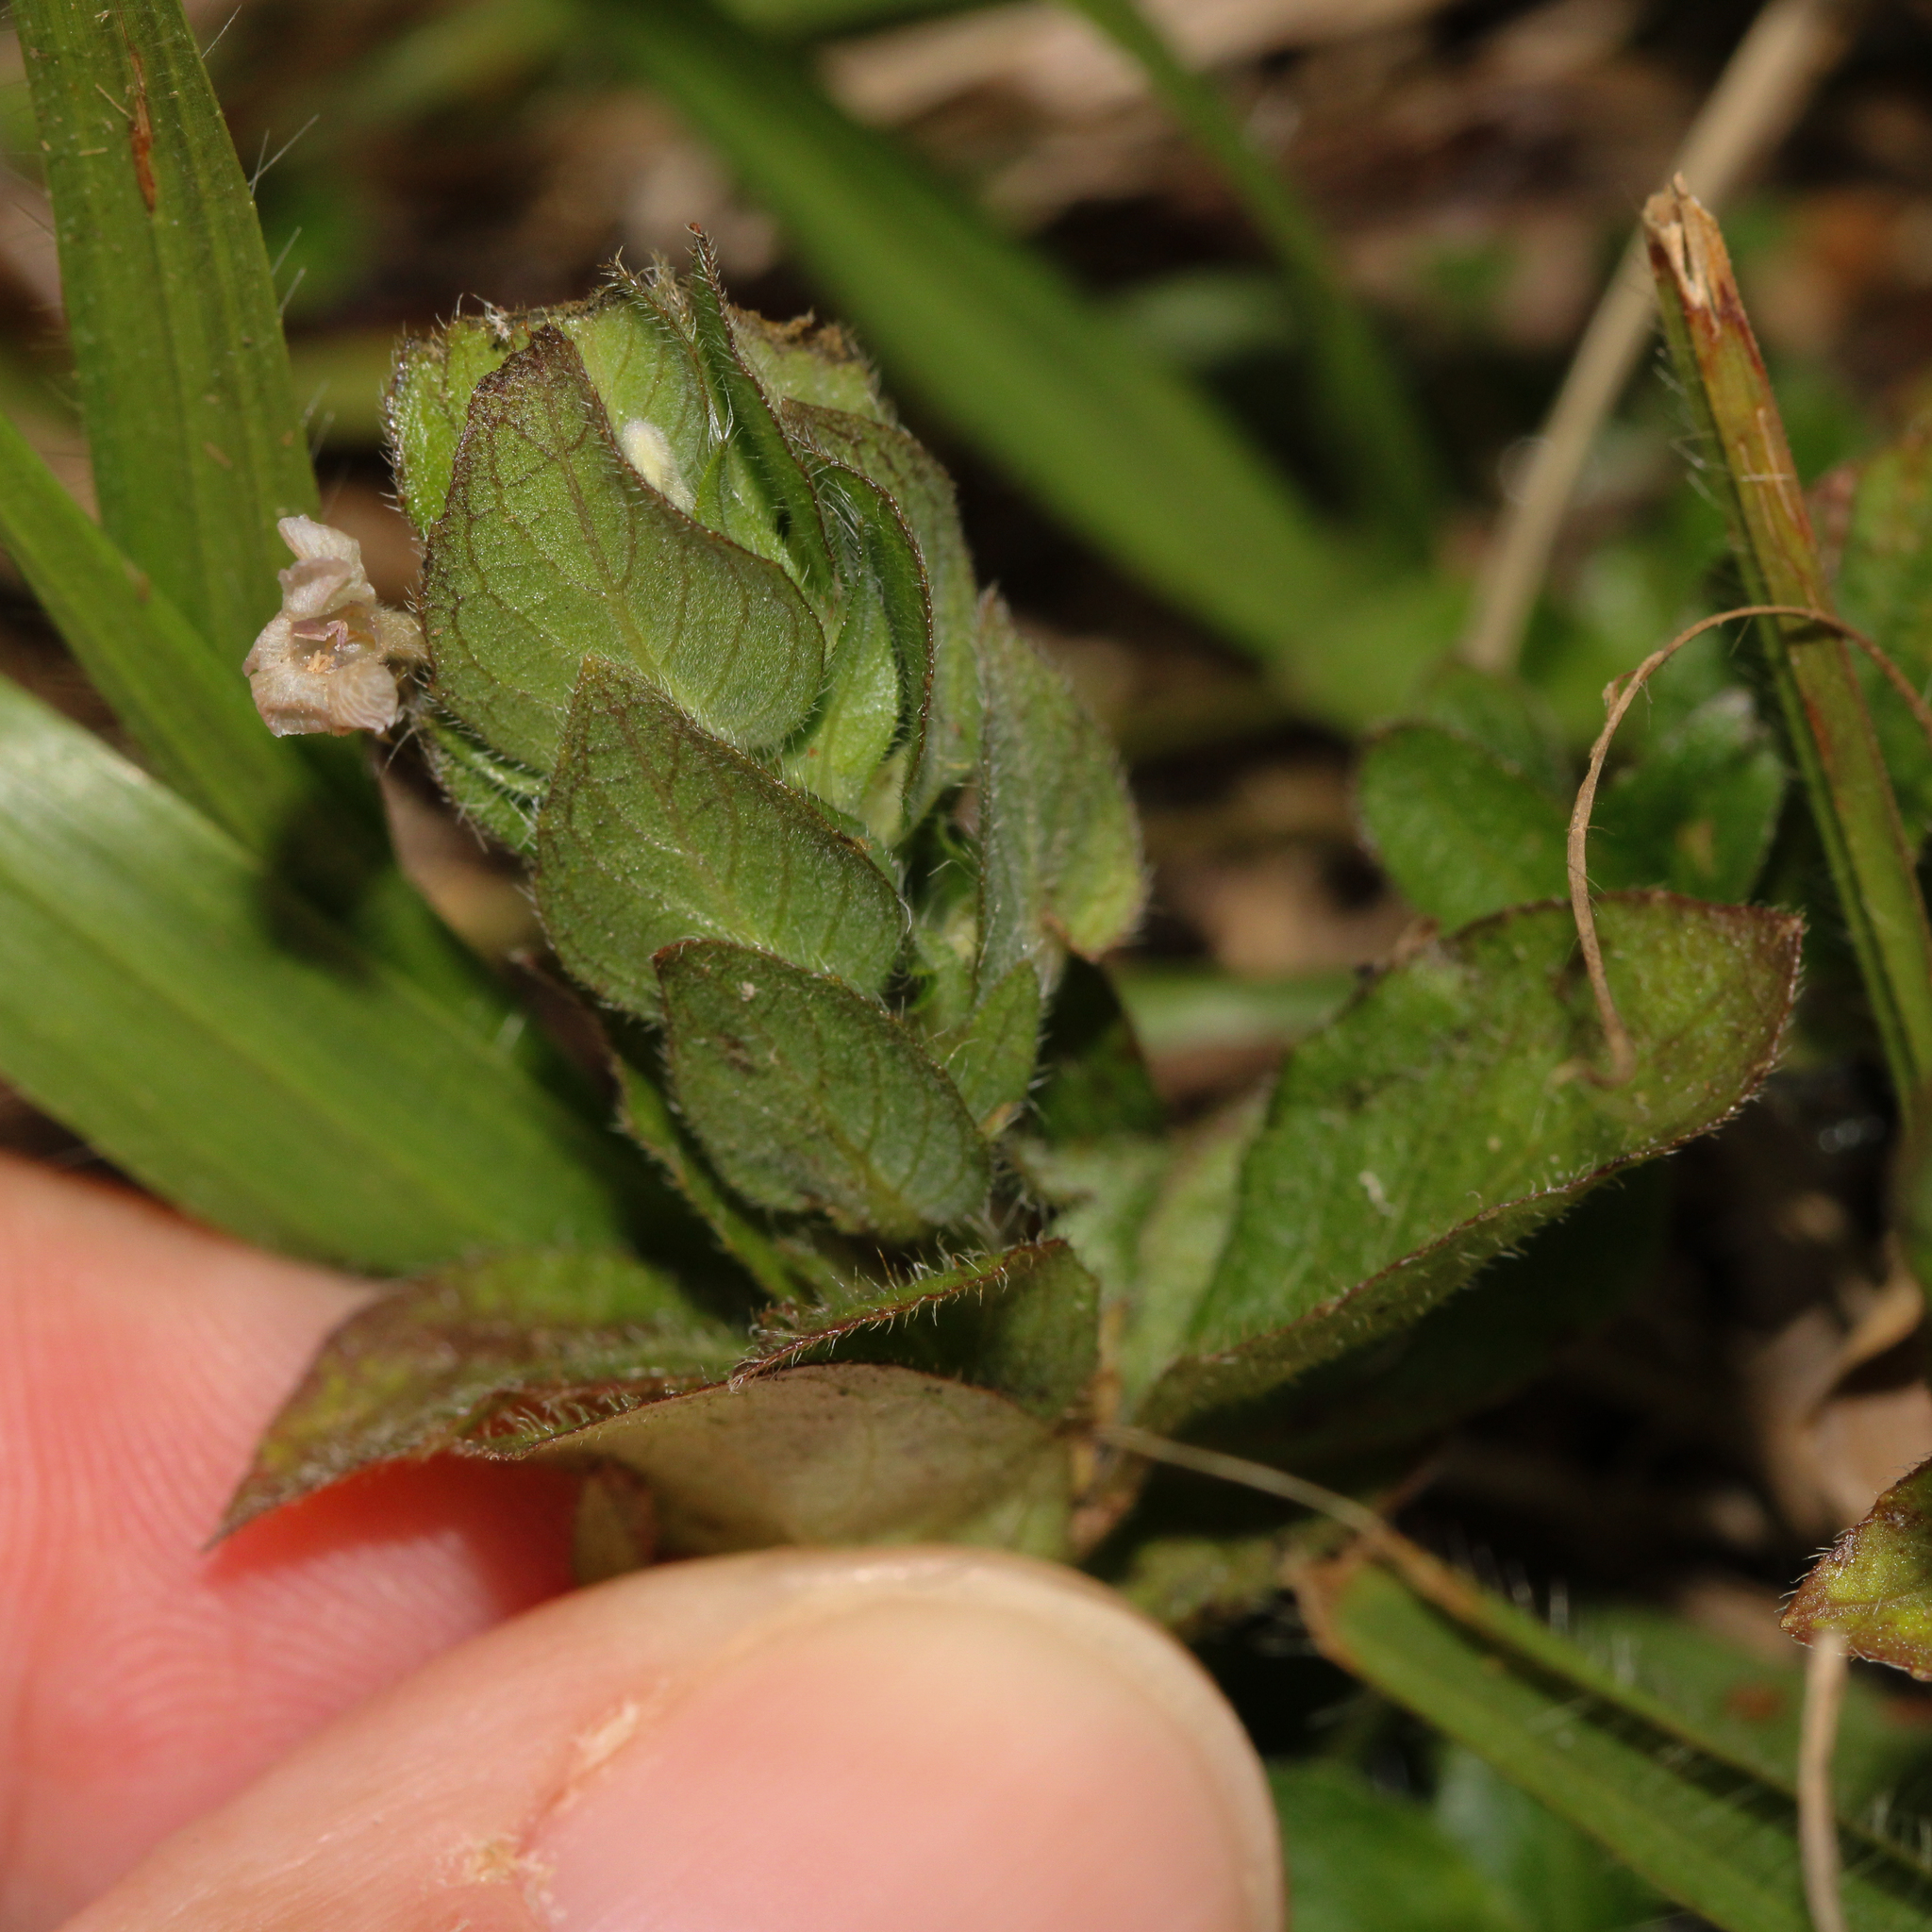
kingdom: Plantae
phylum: Tracheophyta
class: Magnoliopsida
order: Lamiales
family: Acanthaceae
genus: Ruellia
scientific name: Ruellia blechum
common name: Browne's blechum
